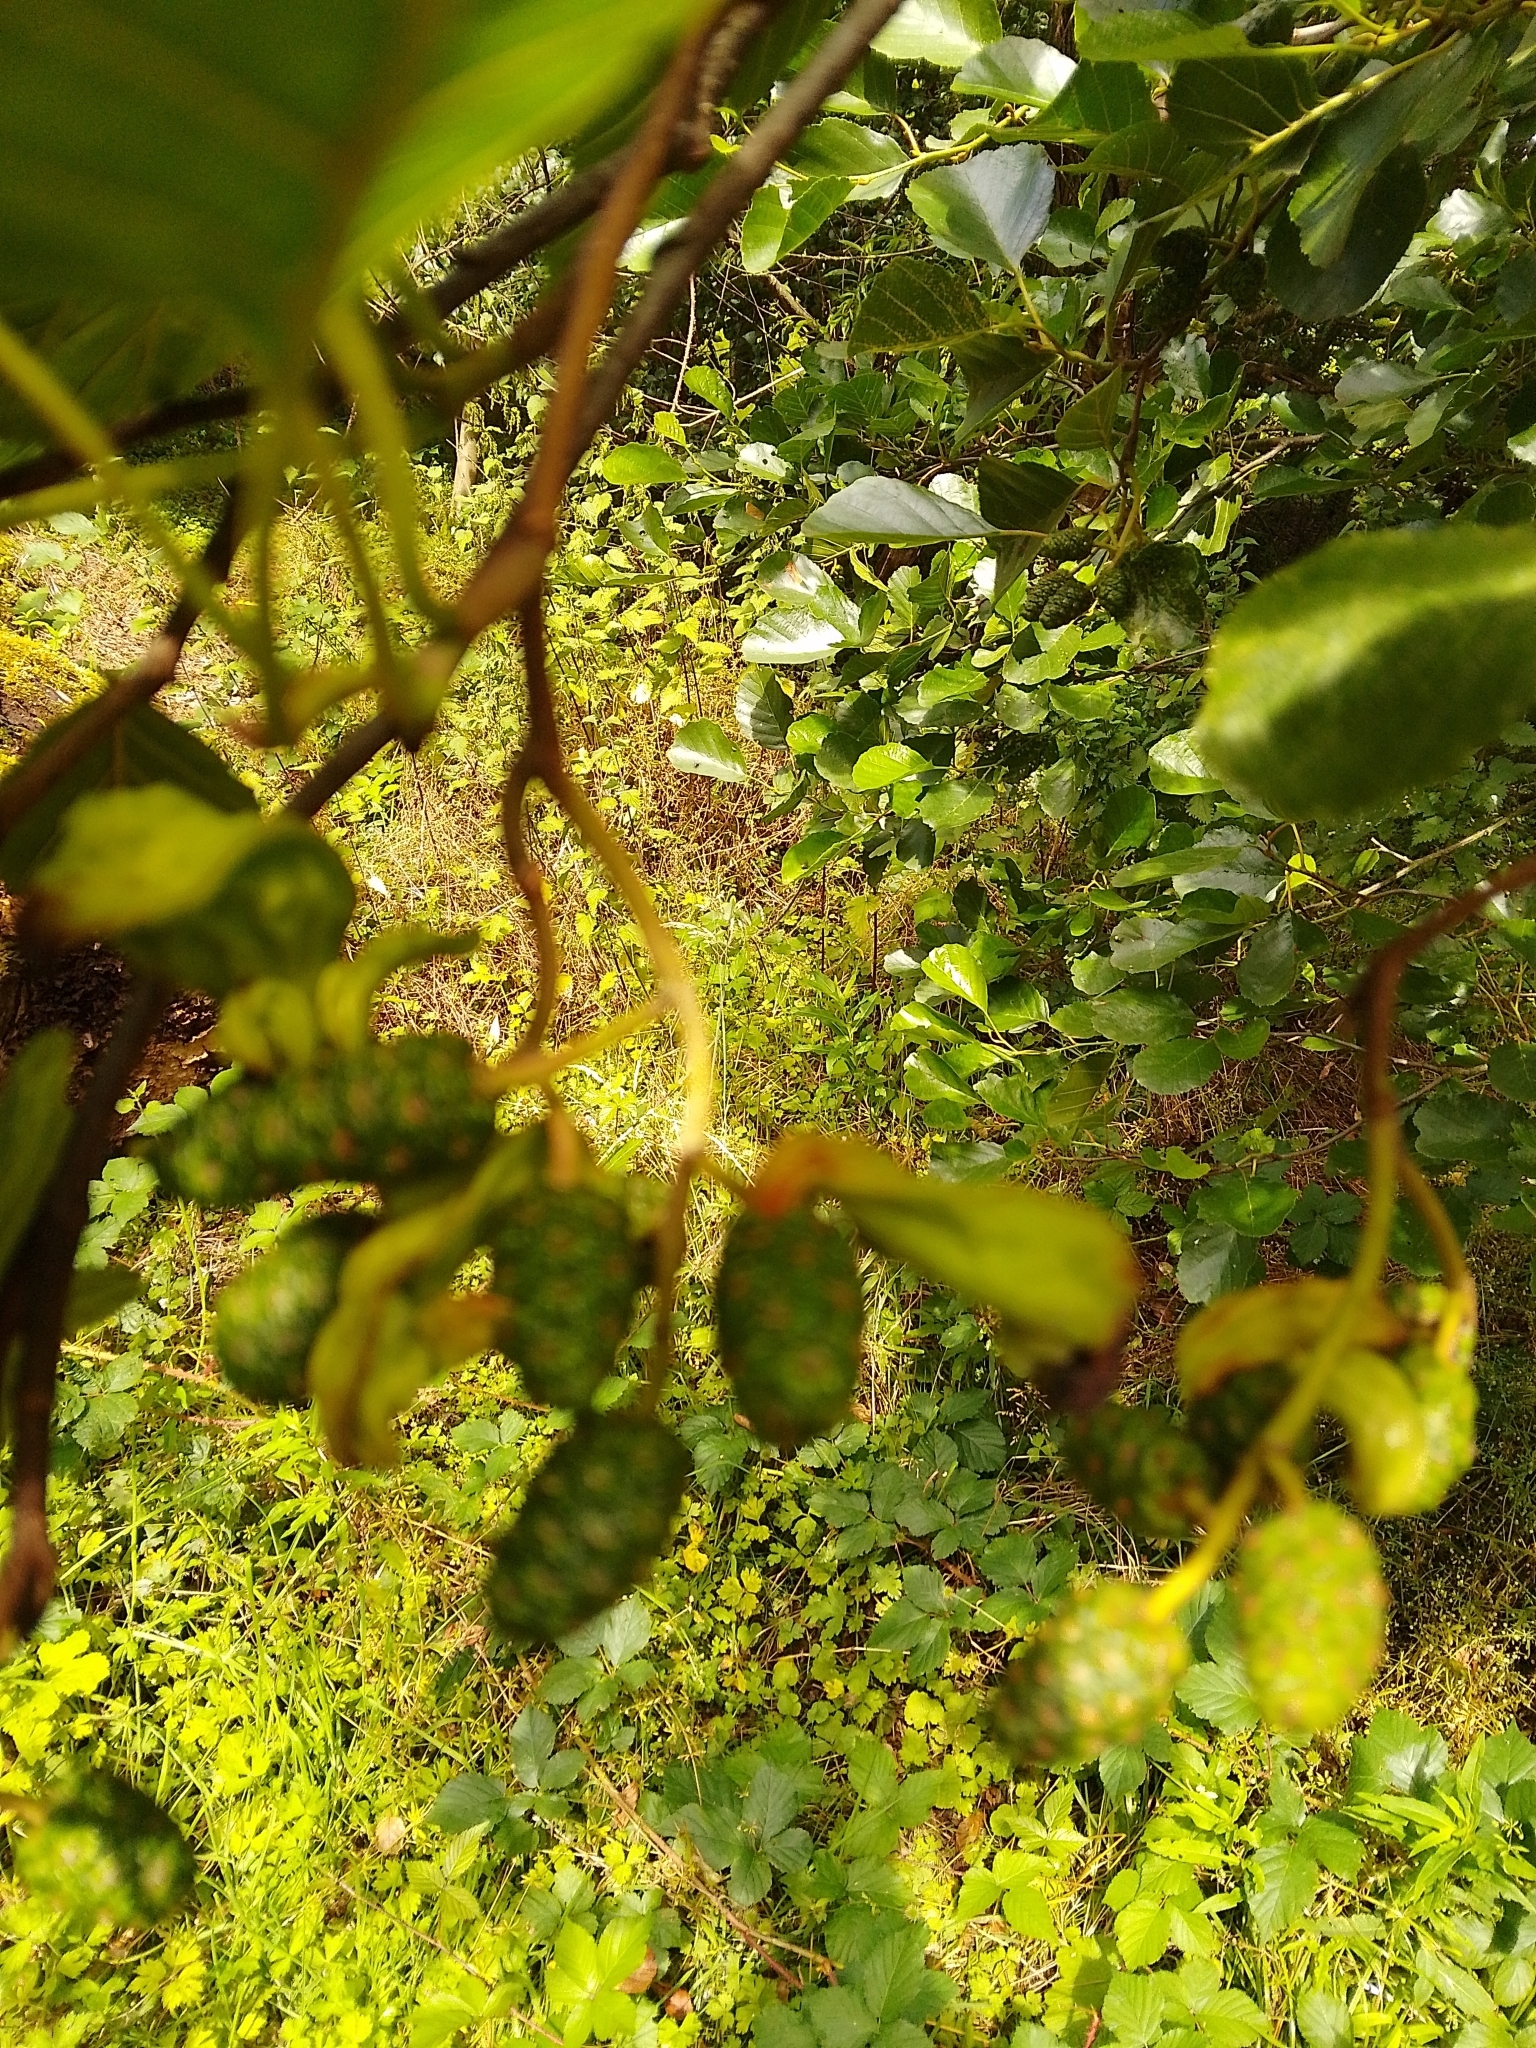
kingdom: Fungi
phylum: Ascomycota
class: Taphrinomycetes
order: Taphrinales
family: Taphrinaceae
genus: Taphrina
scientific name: Taphrina alni
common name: Alder tongue
